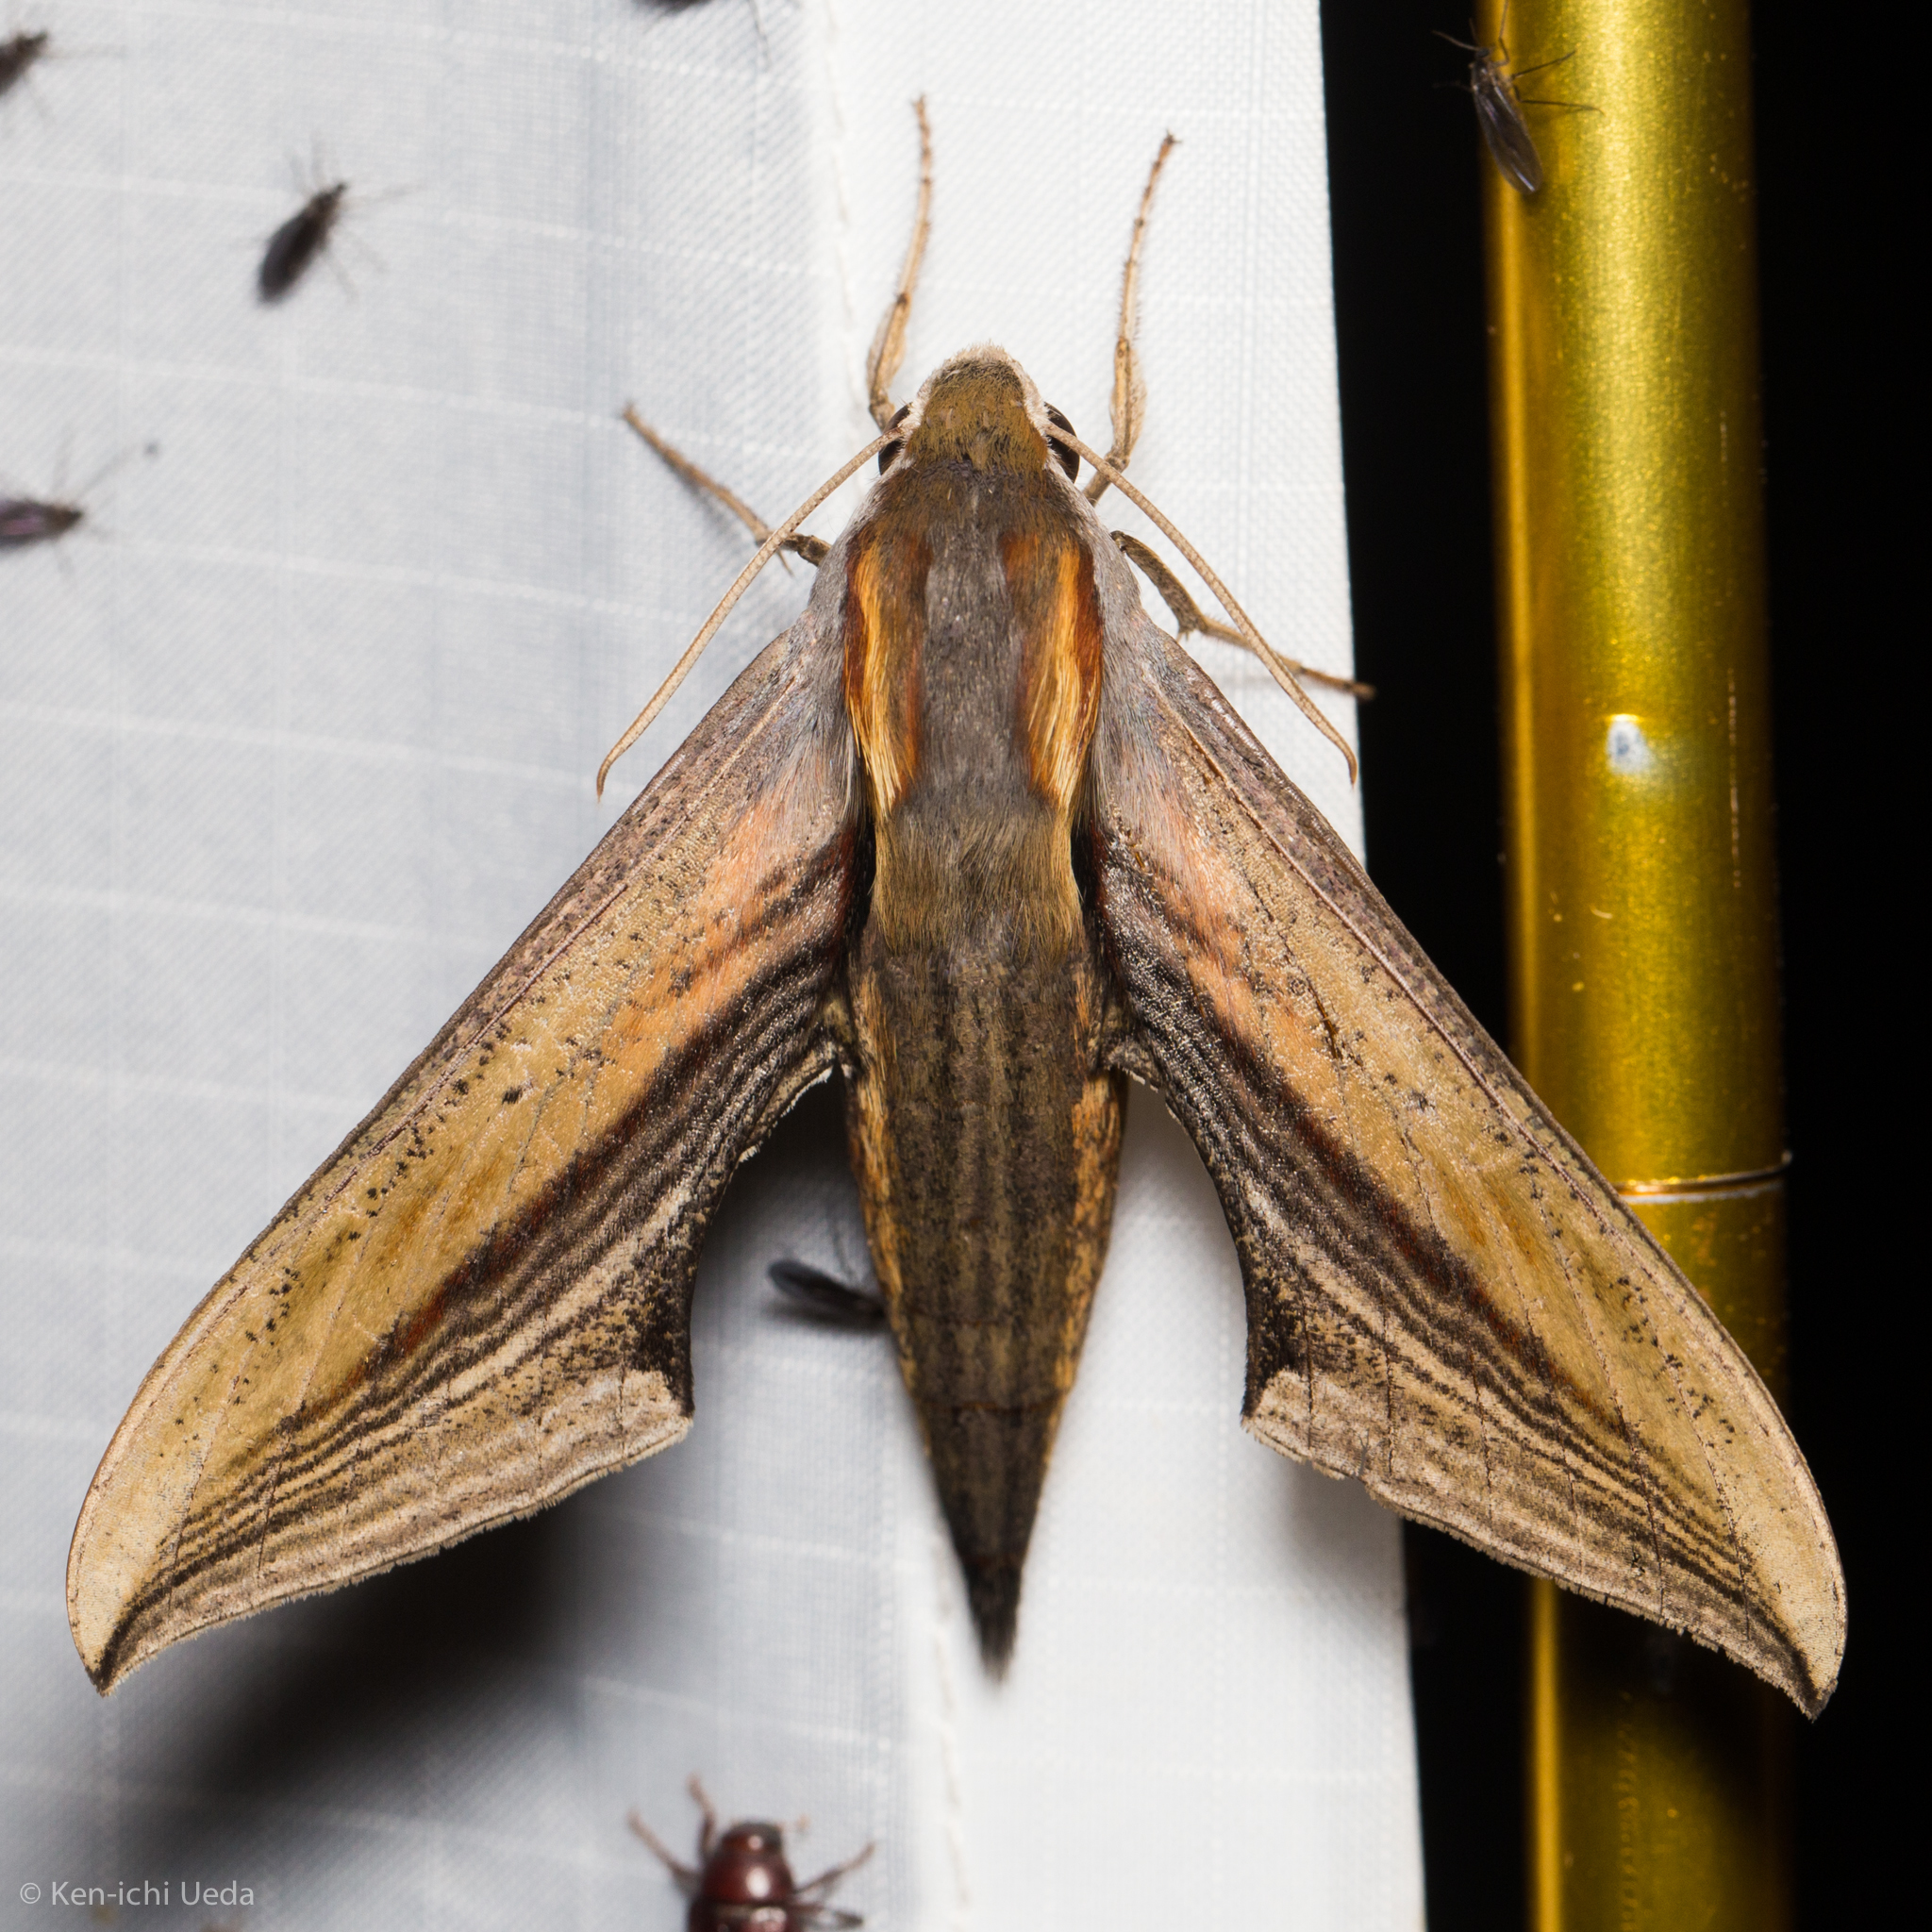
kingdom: Animalia
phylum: Arthropoda
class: Insecta
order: Lepidoptera
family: Sphingidae
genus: Xylophanes
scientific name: Xylophanes falco
